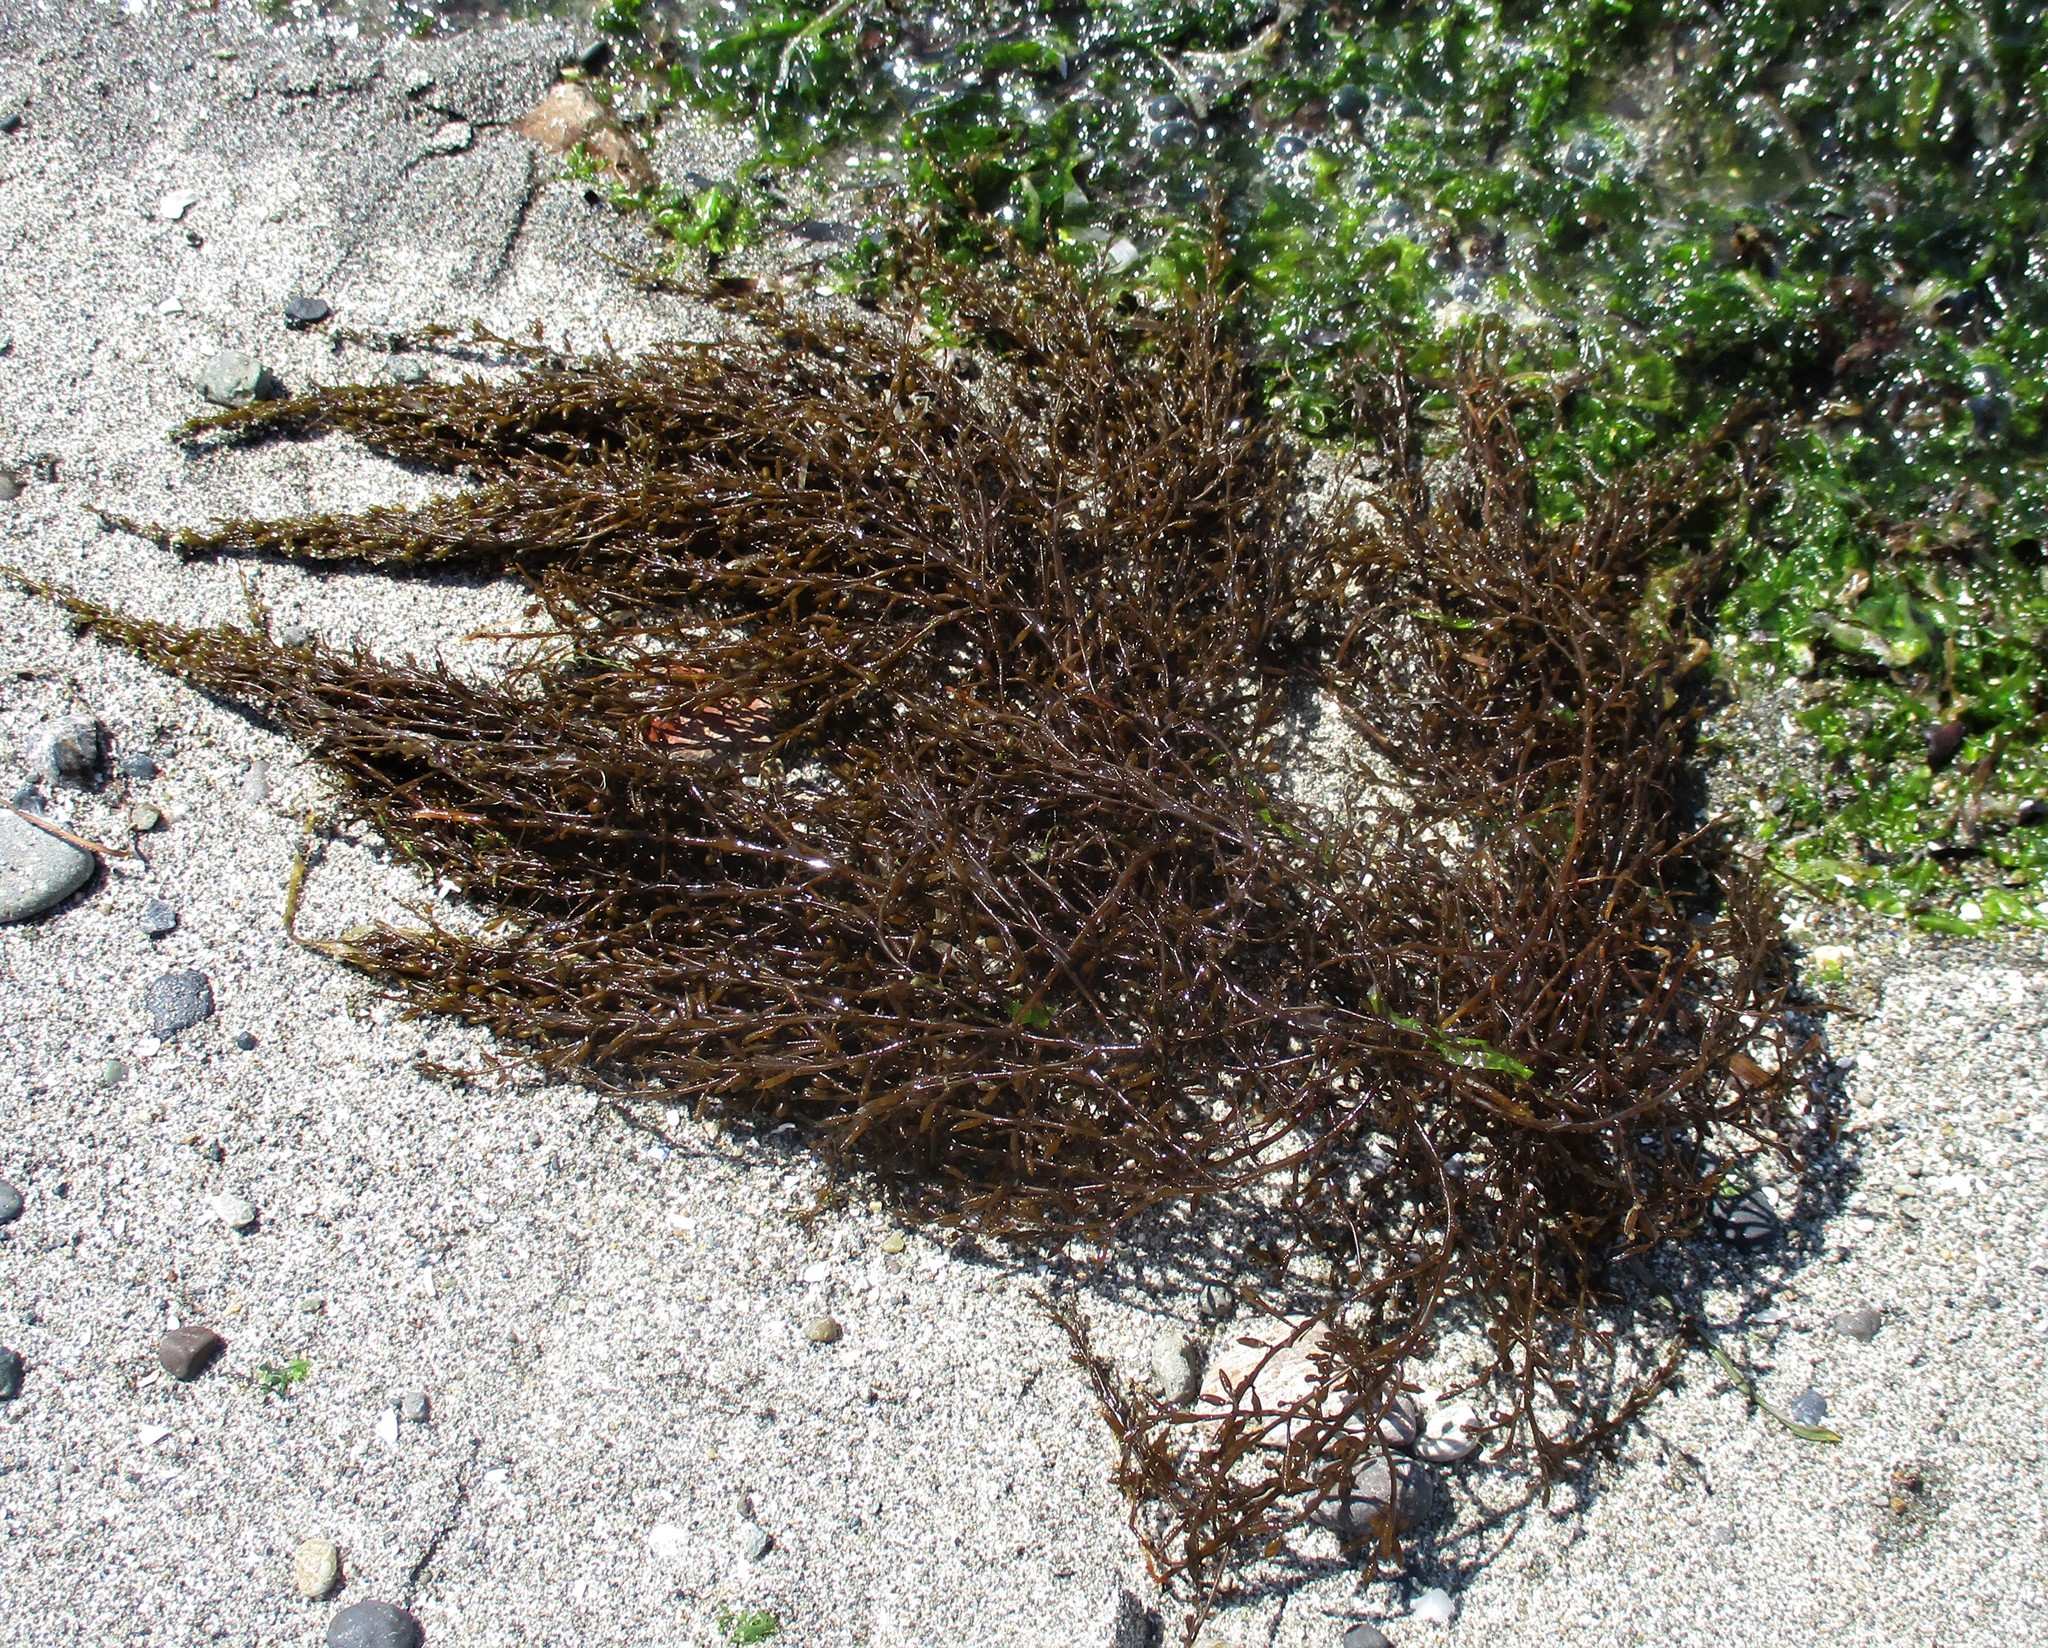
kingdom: Chromista
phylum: Ochrophyta
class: Phaeophyceae
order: Fucales
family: Sargassaceae
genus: Sargassum
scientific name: Sargassum muticum
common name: Japweed
